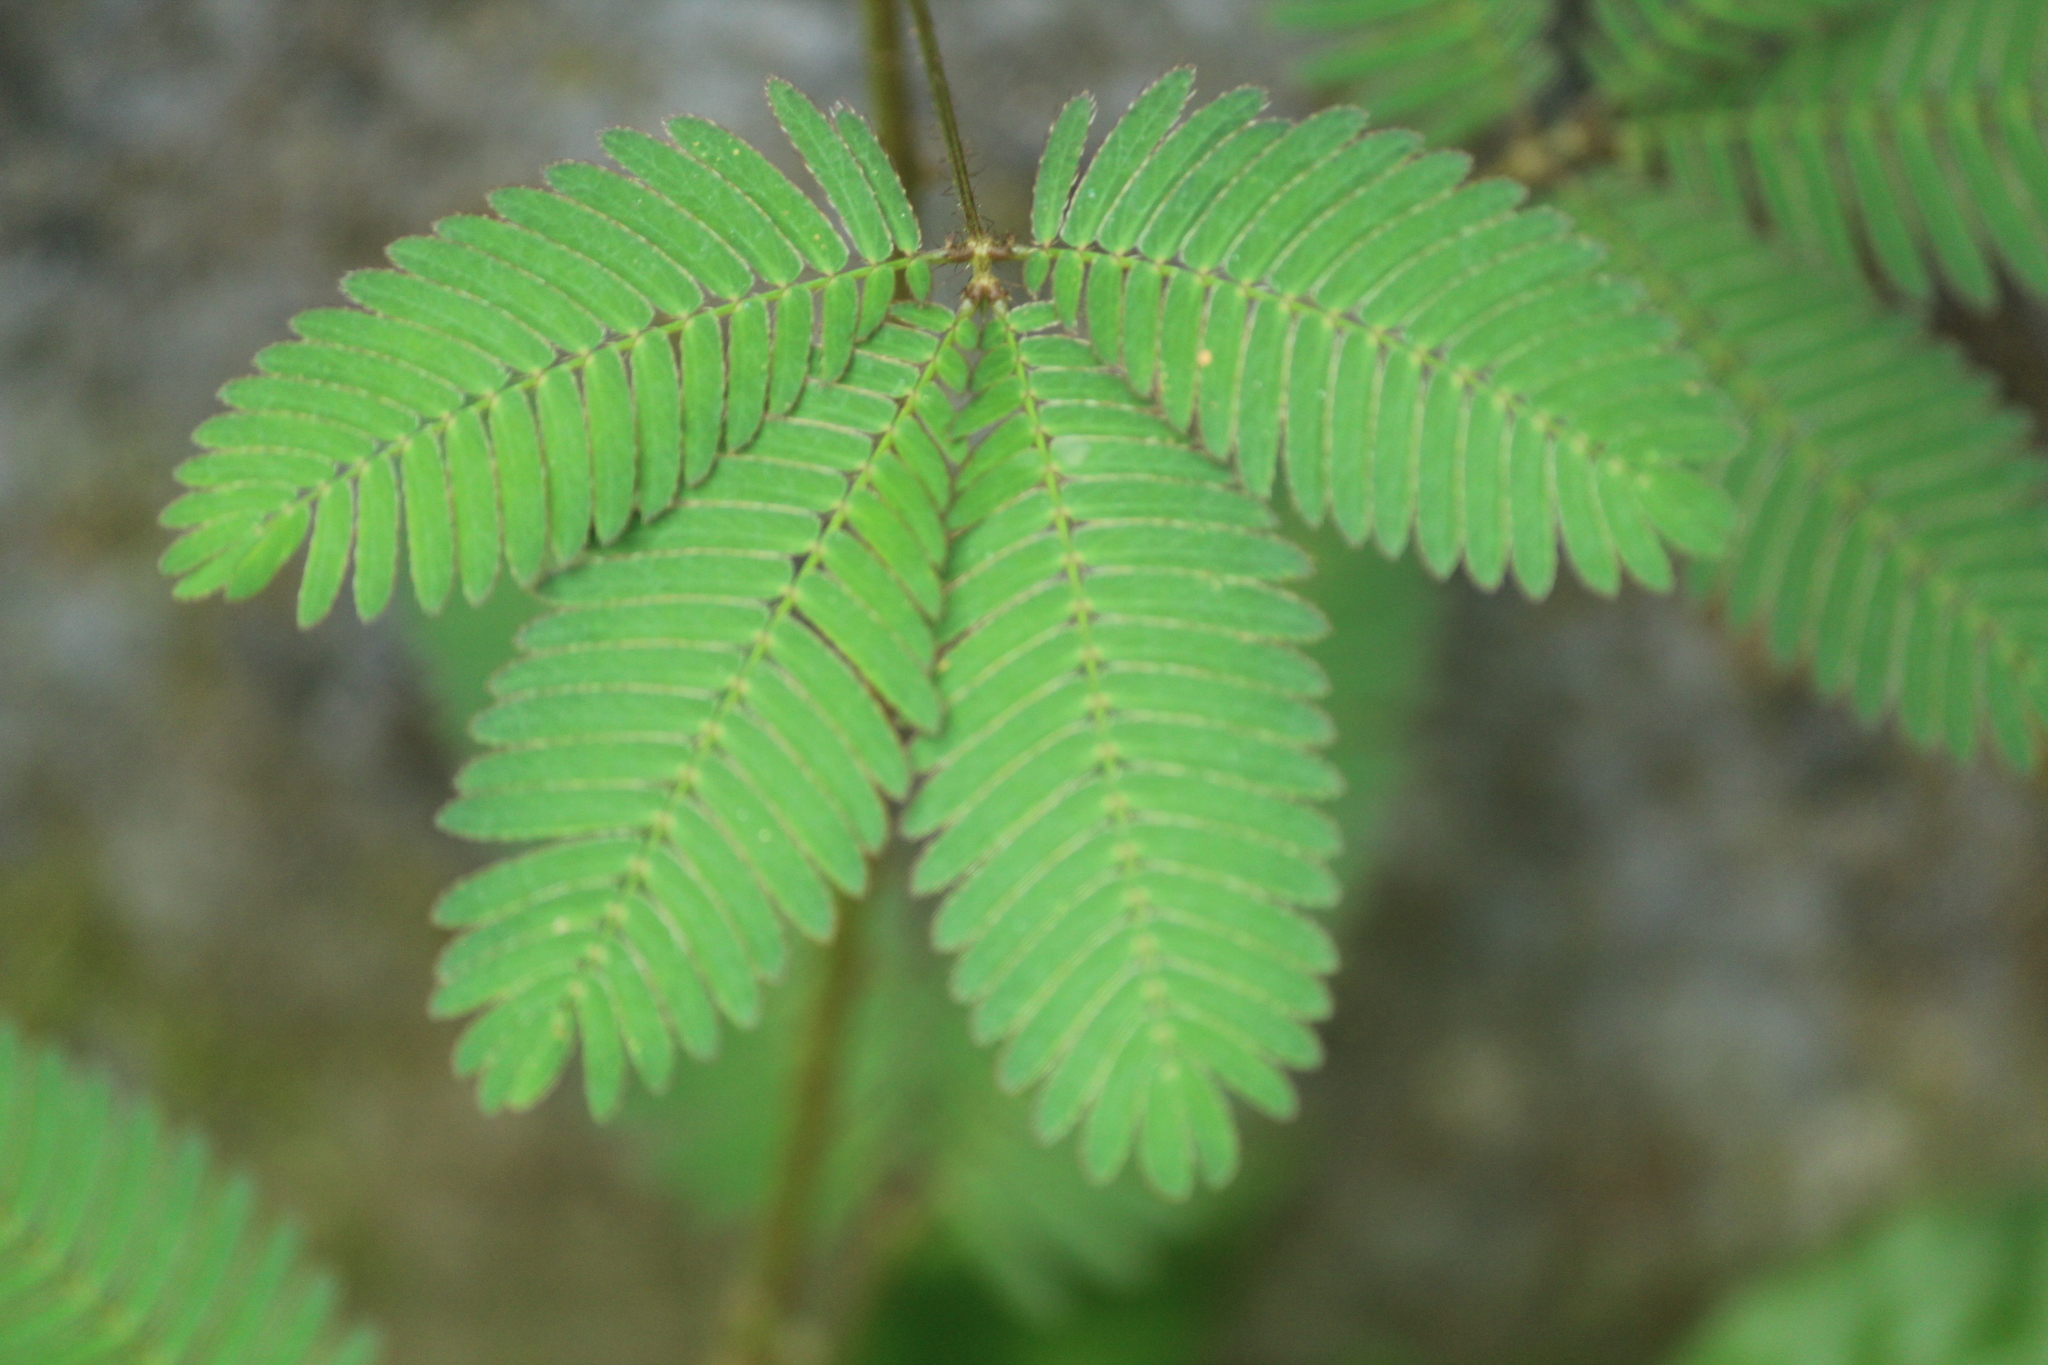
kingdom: Plantae
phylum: Tracheophyta
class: Magnoliopsida
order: Fabales
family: Fabaceae
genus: Mimosa
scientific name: Mimosa pudica
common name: Sensitive plant
